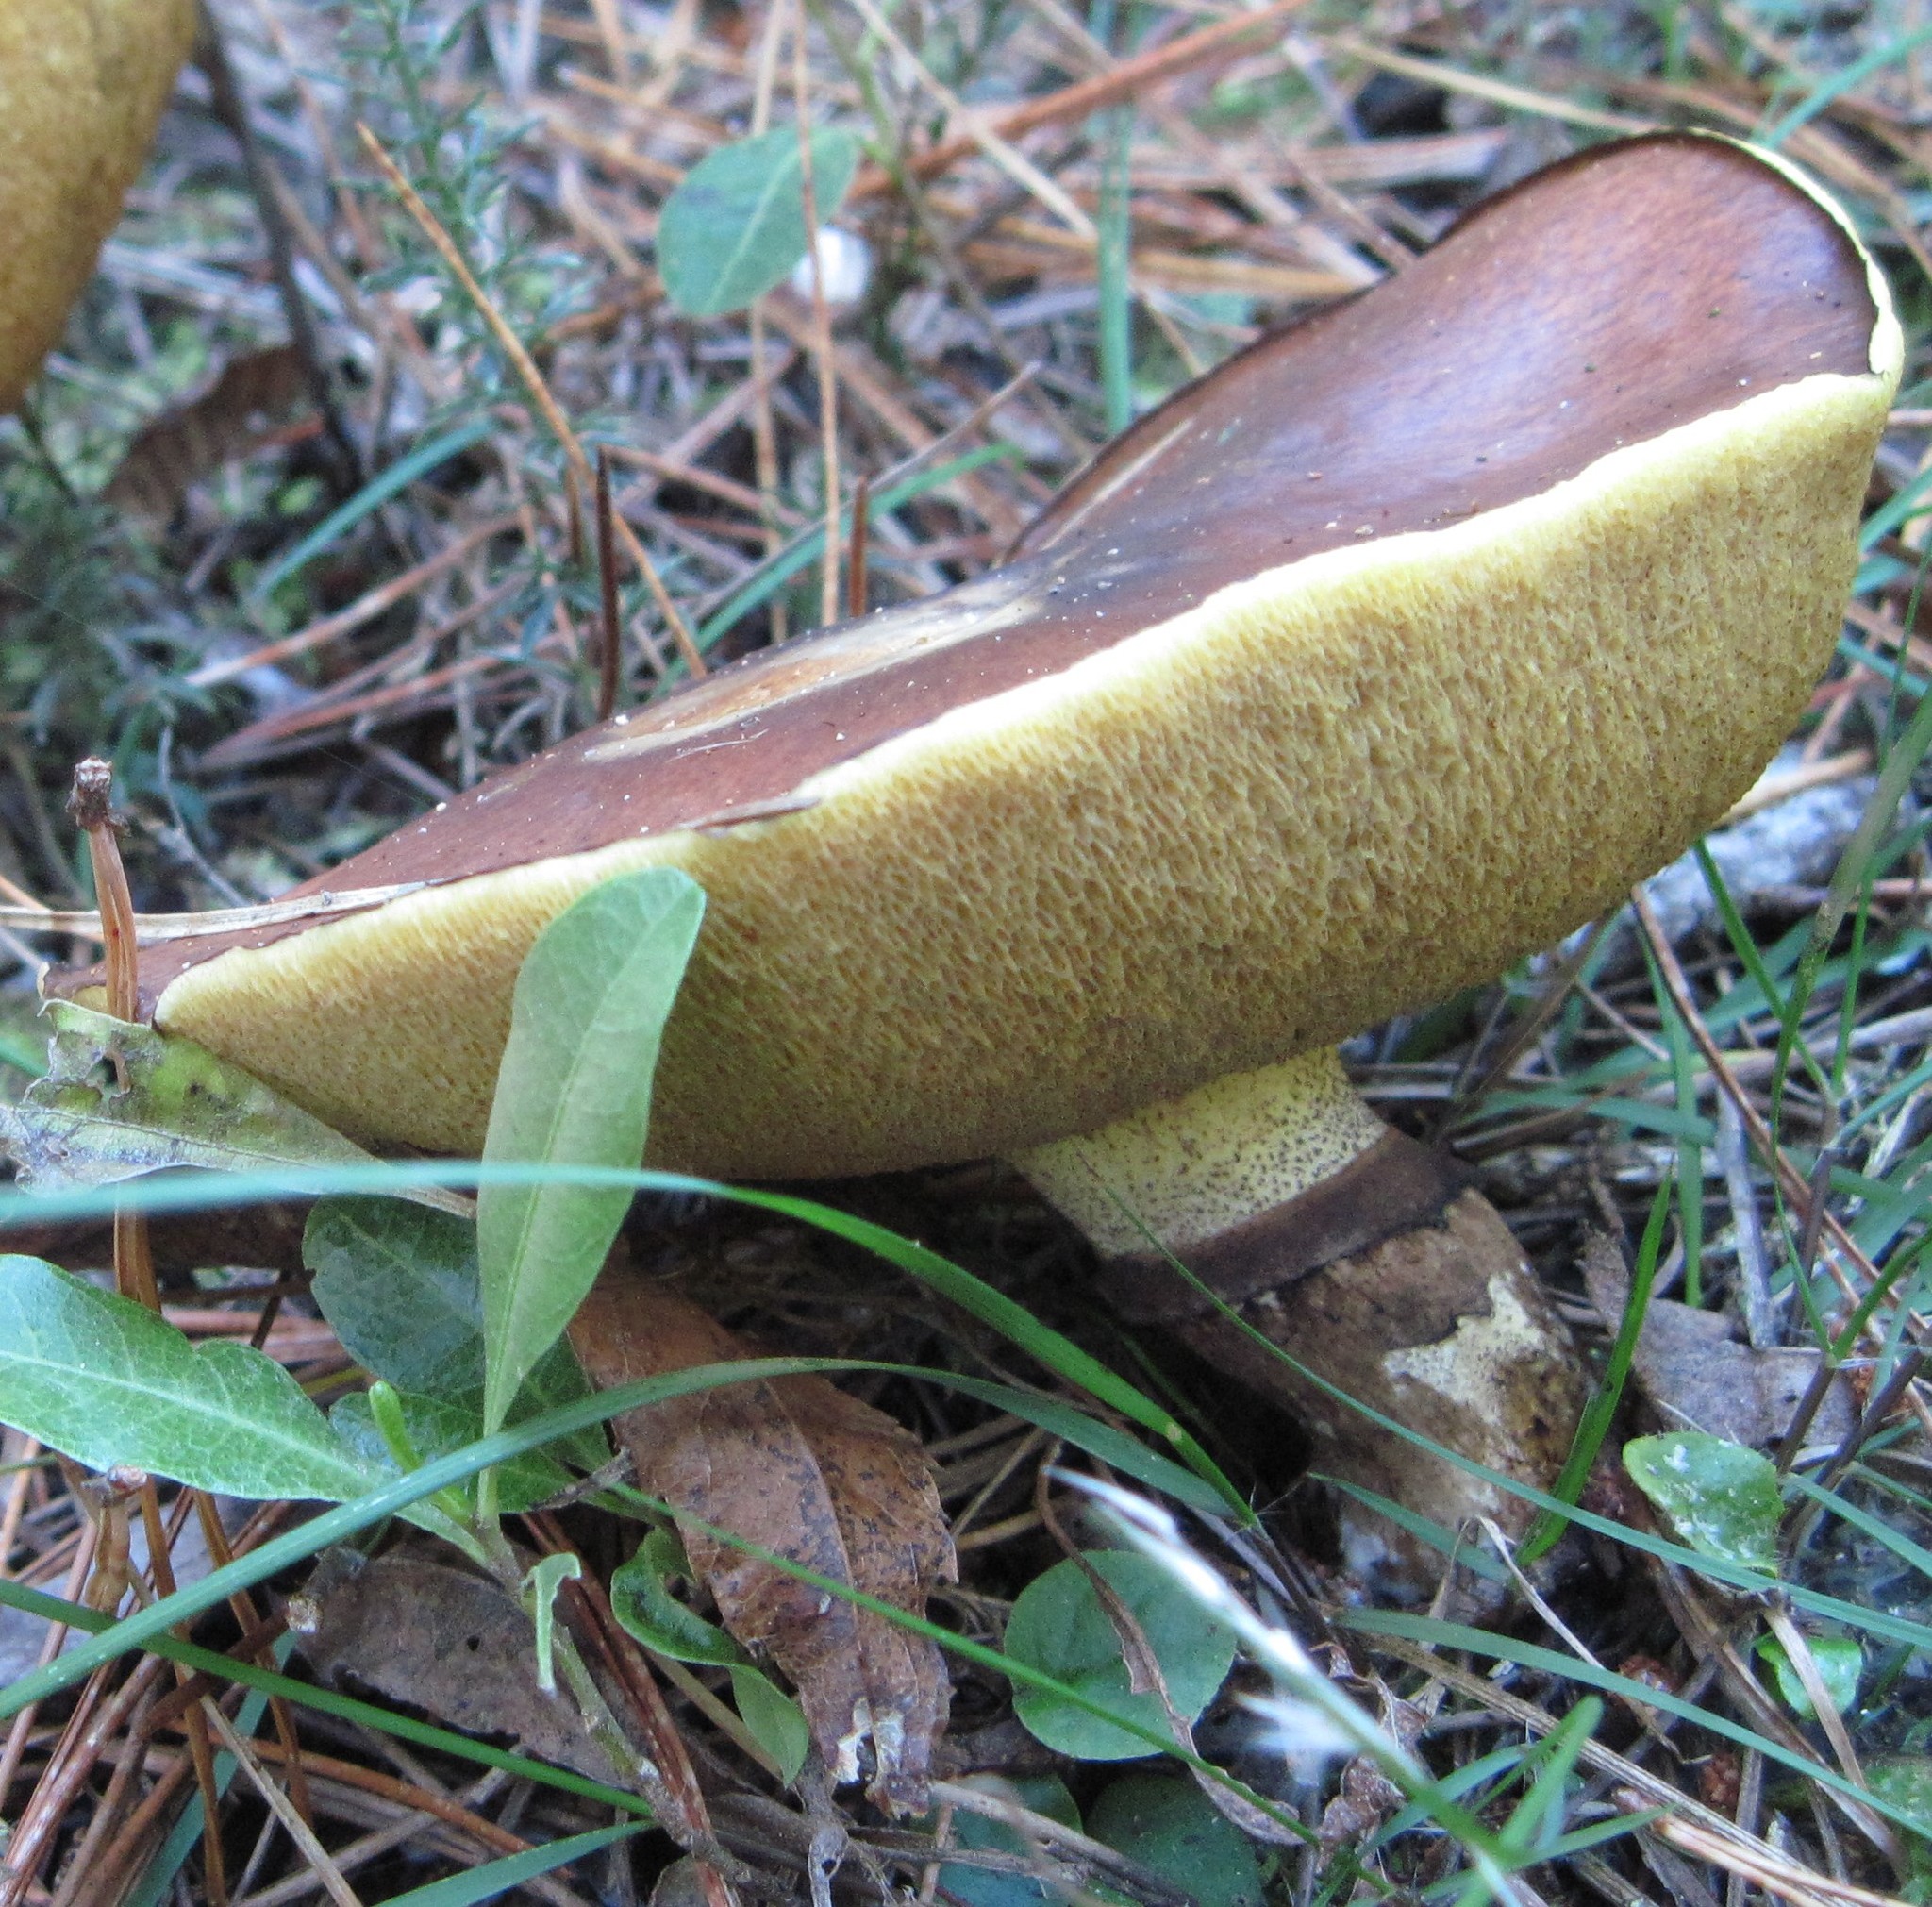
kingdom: Fungi
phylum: Basidiomycota
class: Agaricomycetes
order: Boletales
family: Suillaceae
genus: Suillus
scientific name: Suillus luteus
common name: Slippery jack
